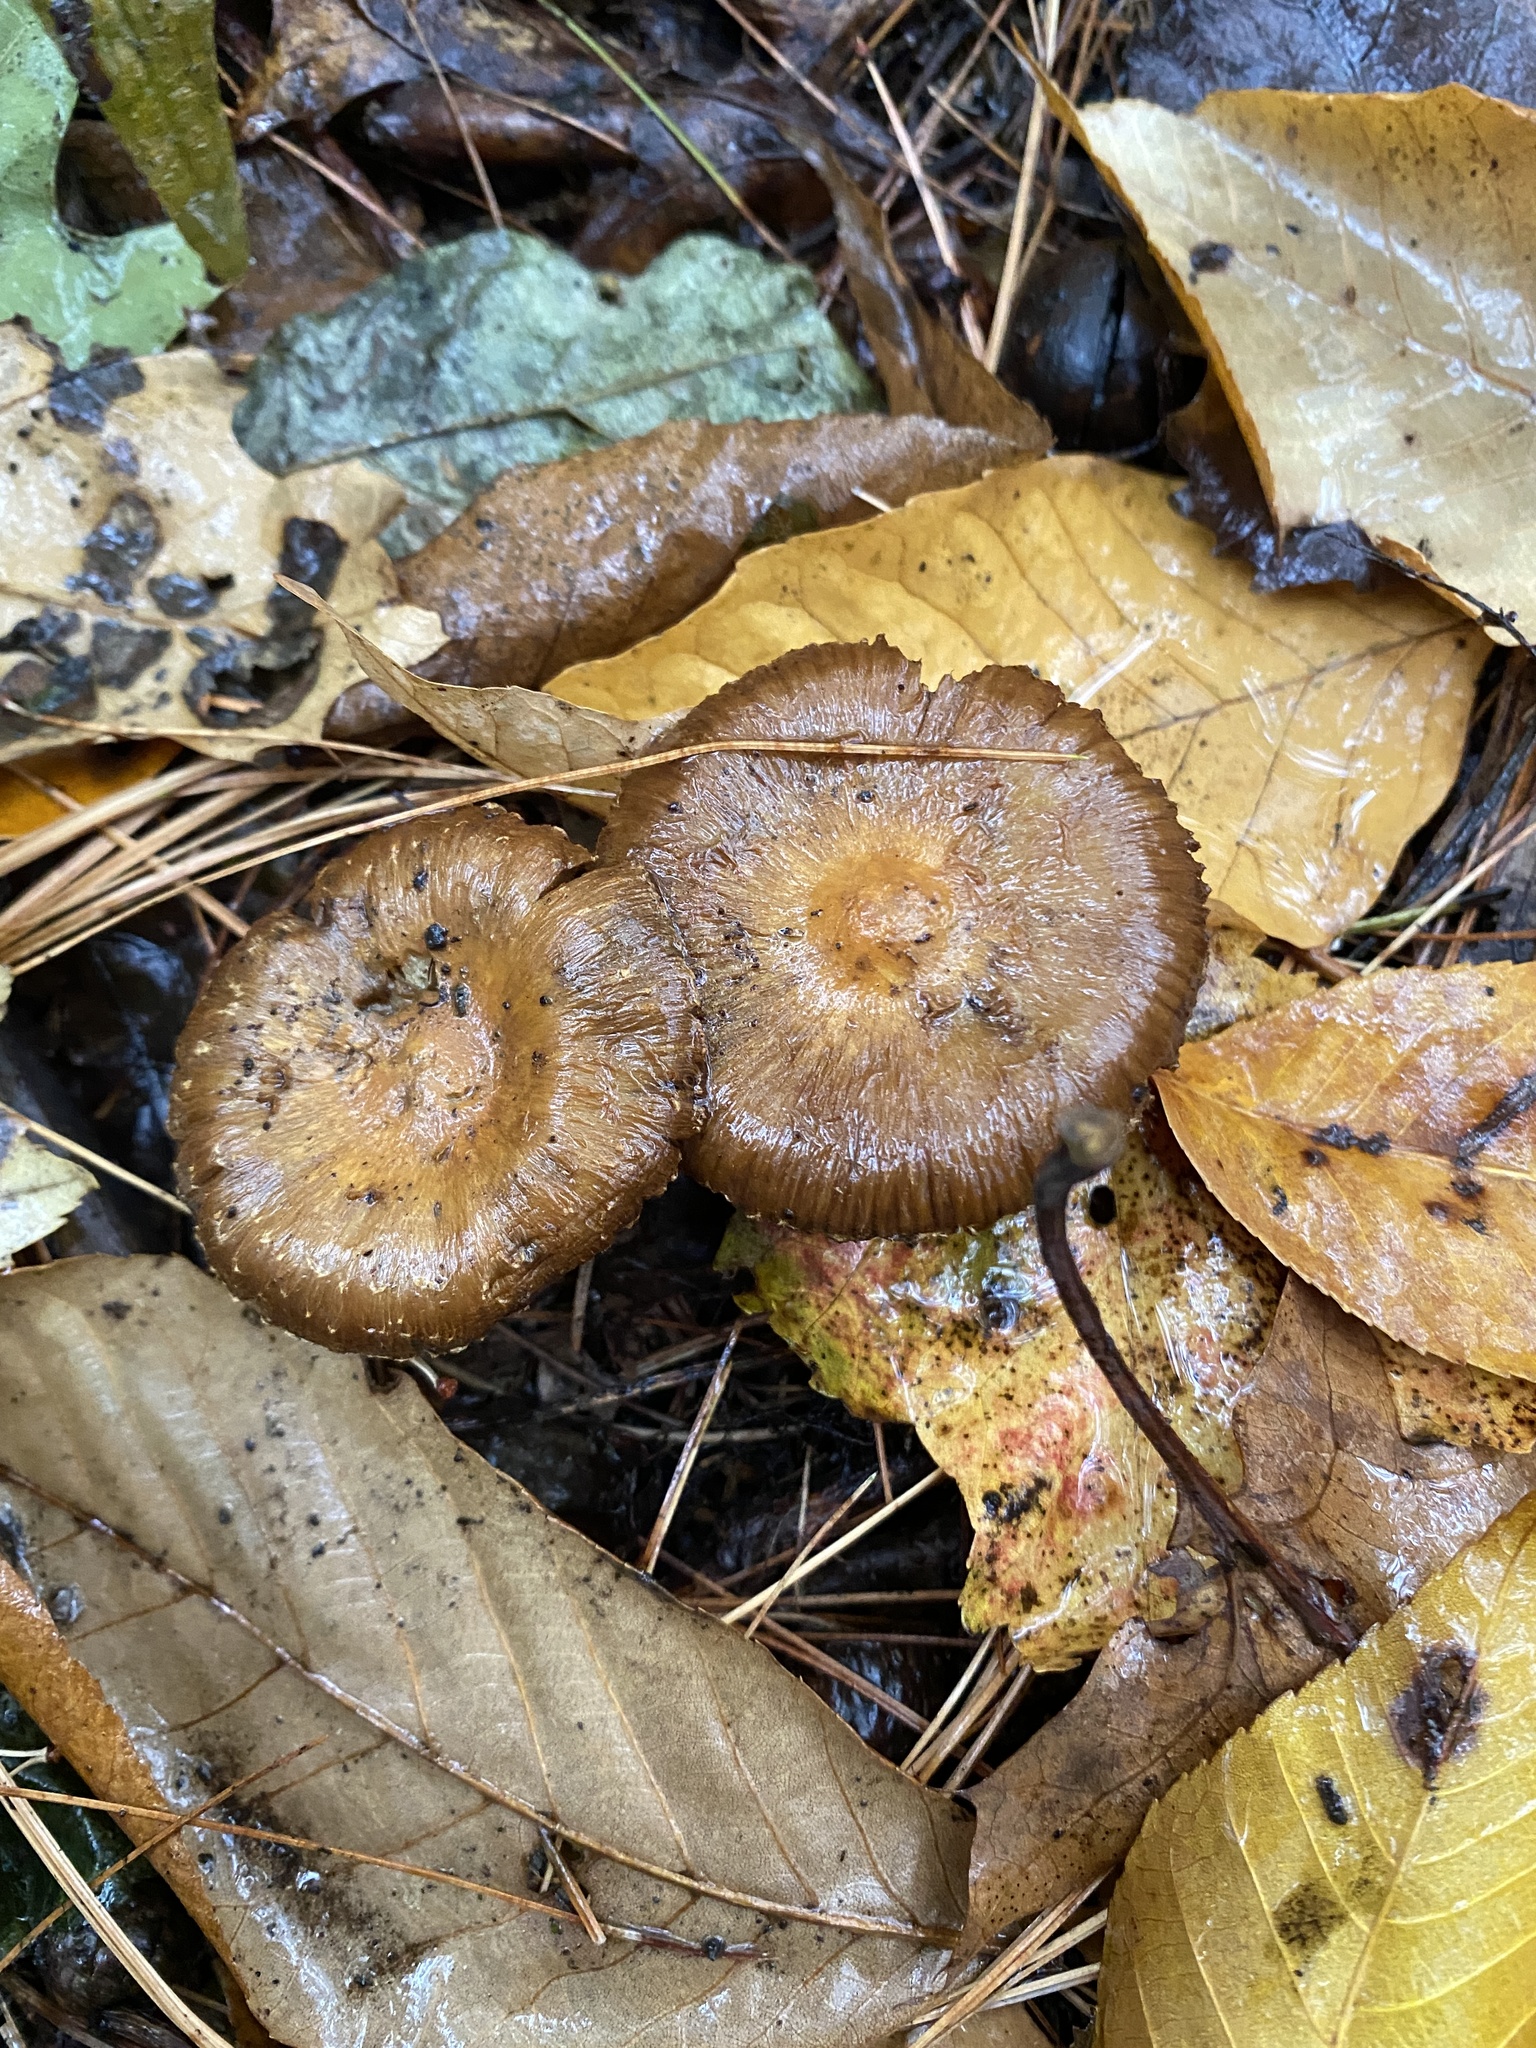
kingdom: Fungi
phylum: Basidiomycota
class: Agaricomycetes
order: Agaricales
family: Physalacriaceae
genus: Armillaria
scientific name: Armillaria sinapina
